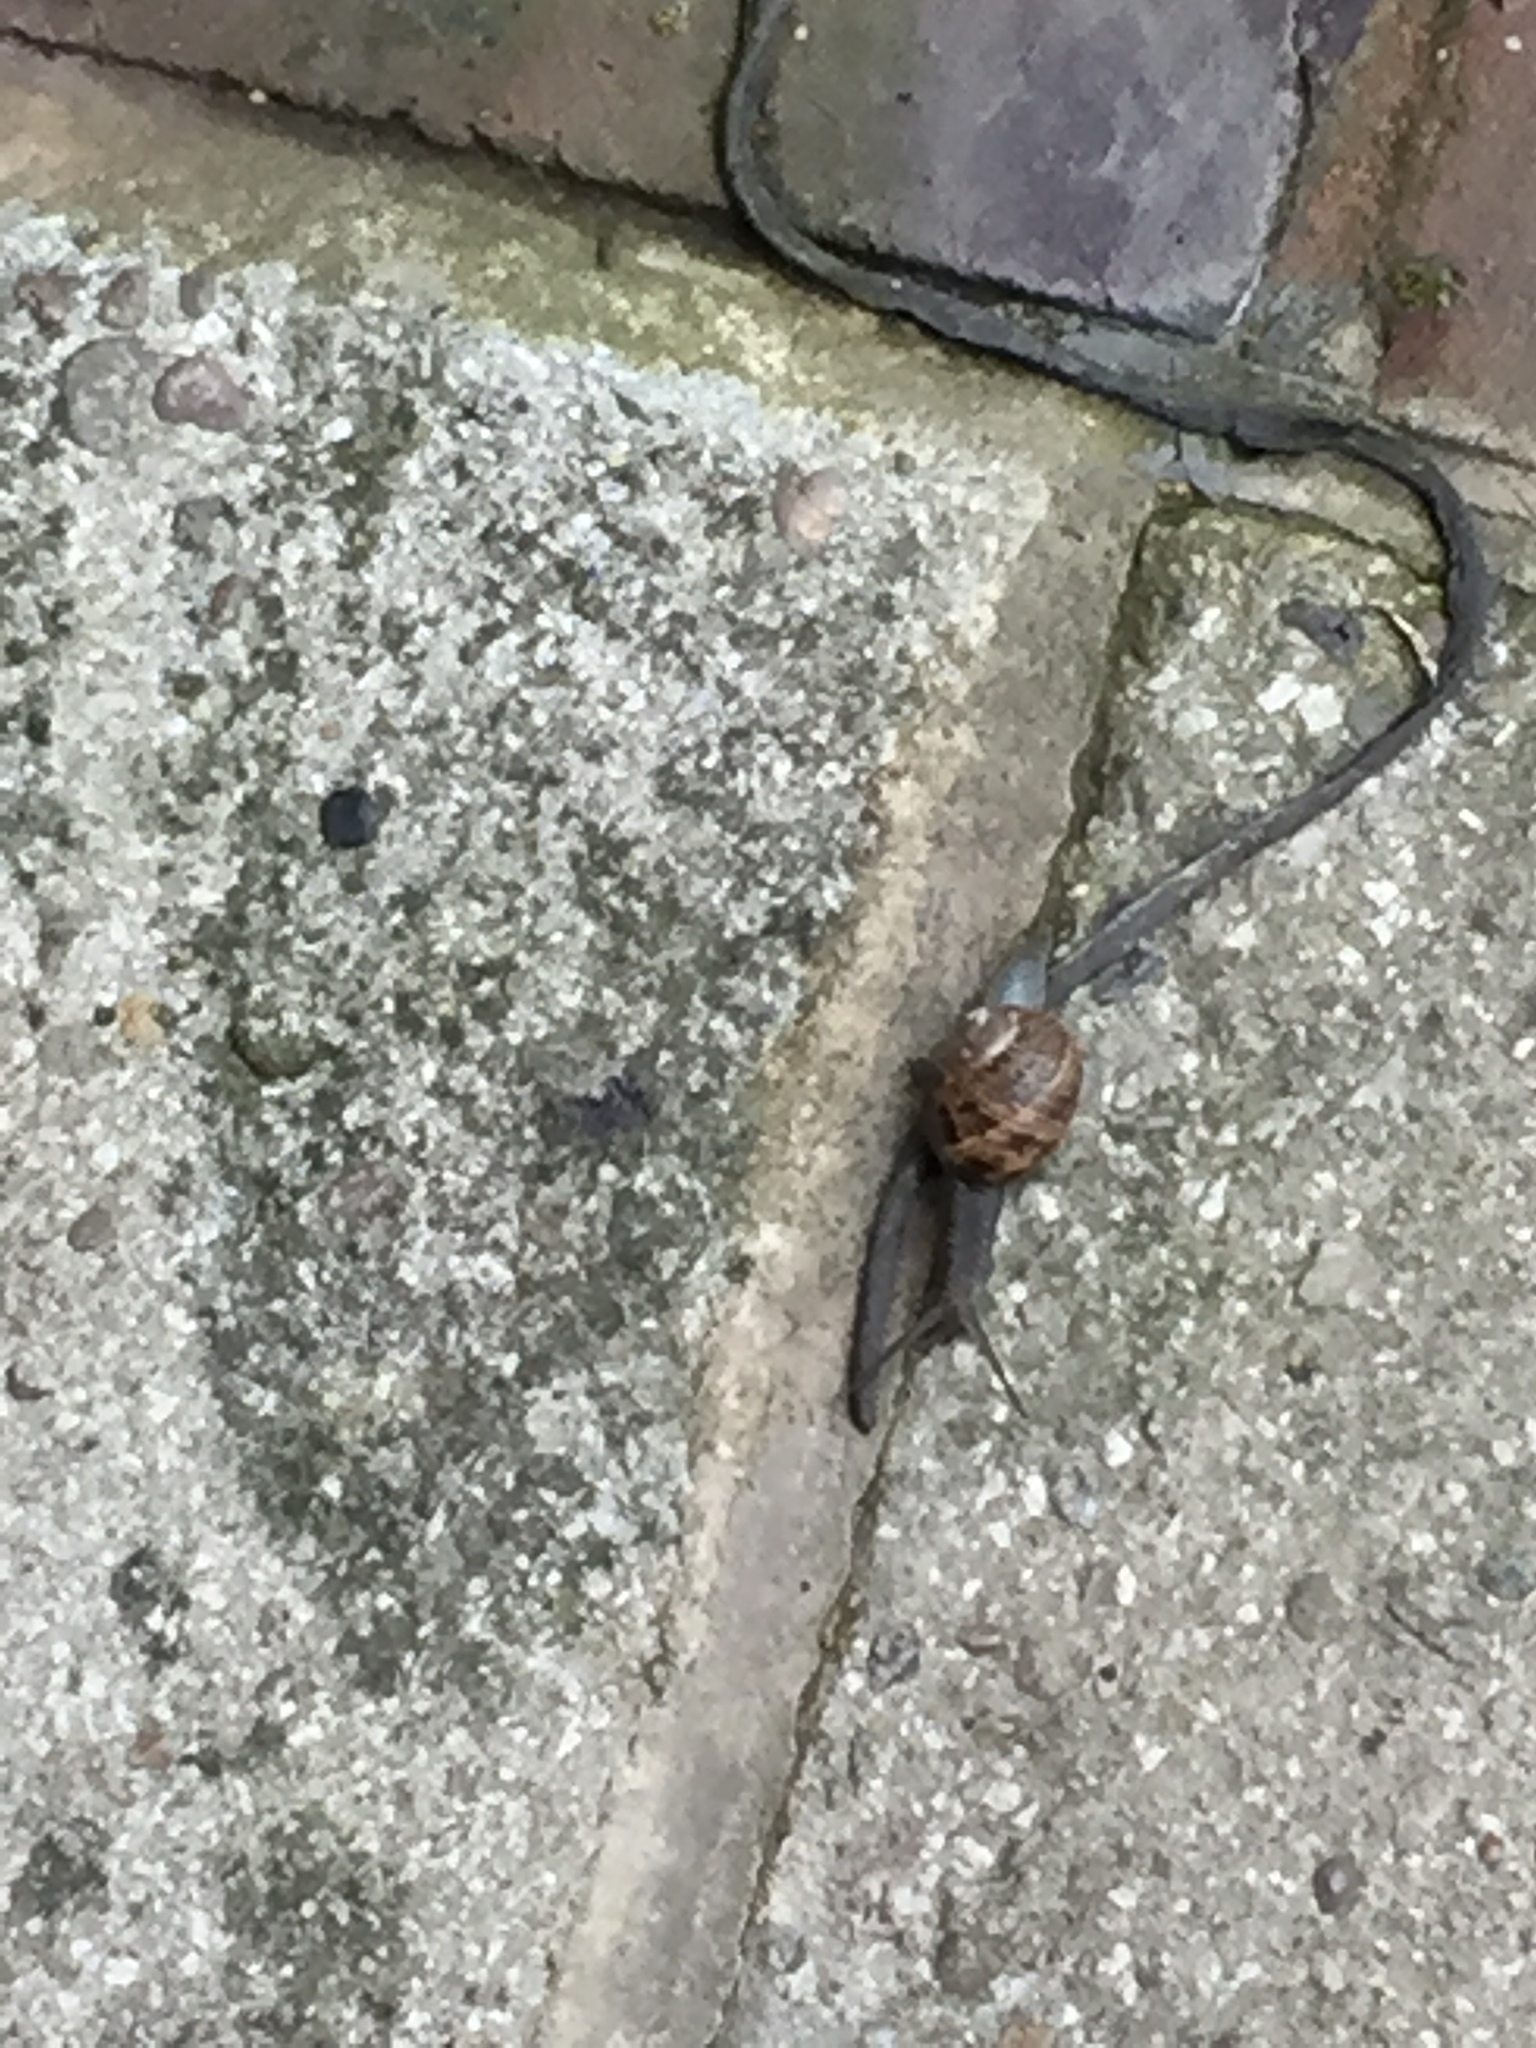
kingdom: Animalia
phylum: Mollusca
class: Gastropoda
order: Stylommatophora
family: Helicidae
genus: Cornu
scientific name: Cornu aspersum
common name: Brown garden snail
